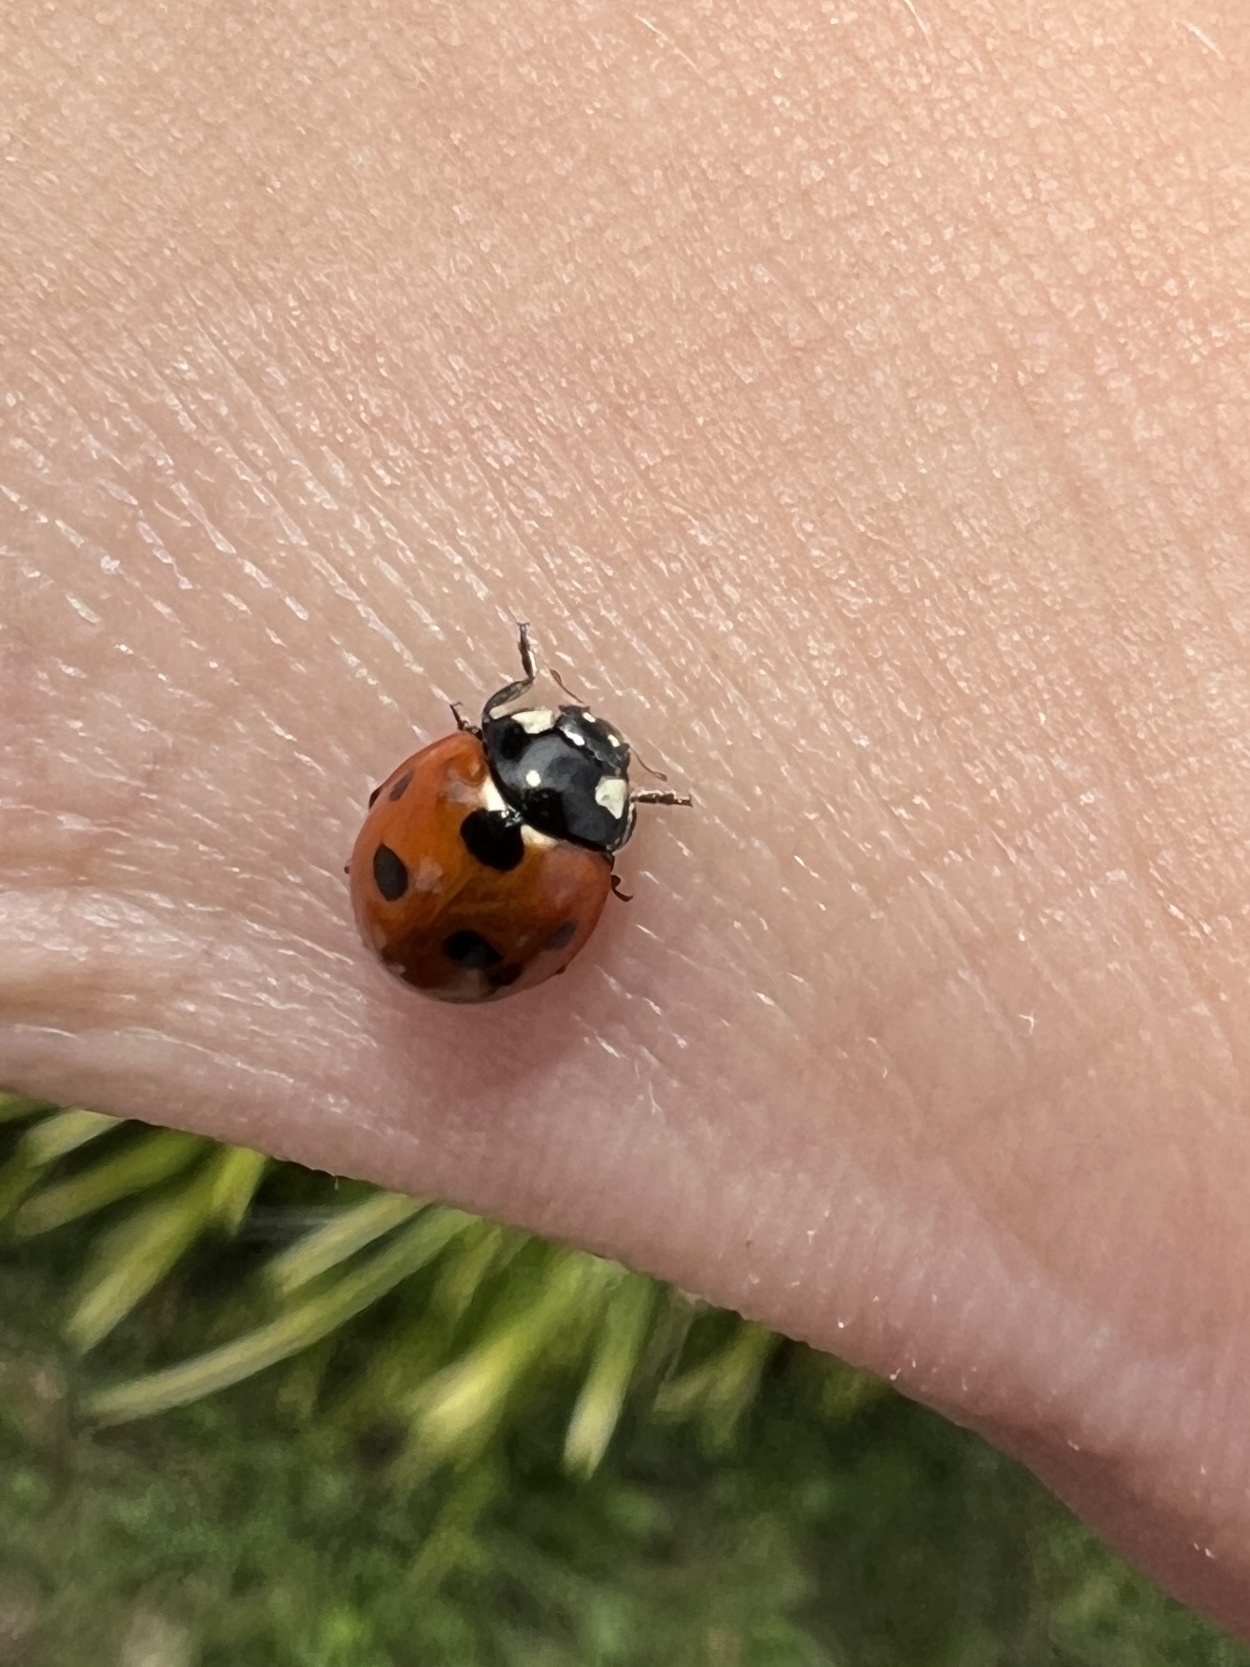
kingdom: Animalia
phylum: Arthropoda
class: Insecta
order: Coleoptera
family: Coccinellidae
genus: Coccinella
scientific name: Coccinella septempunctata
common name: Sevenspotted lady beetle
